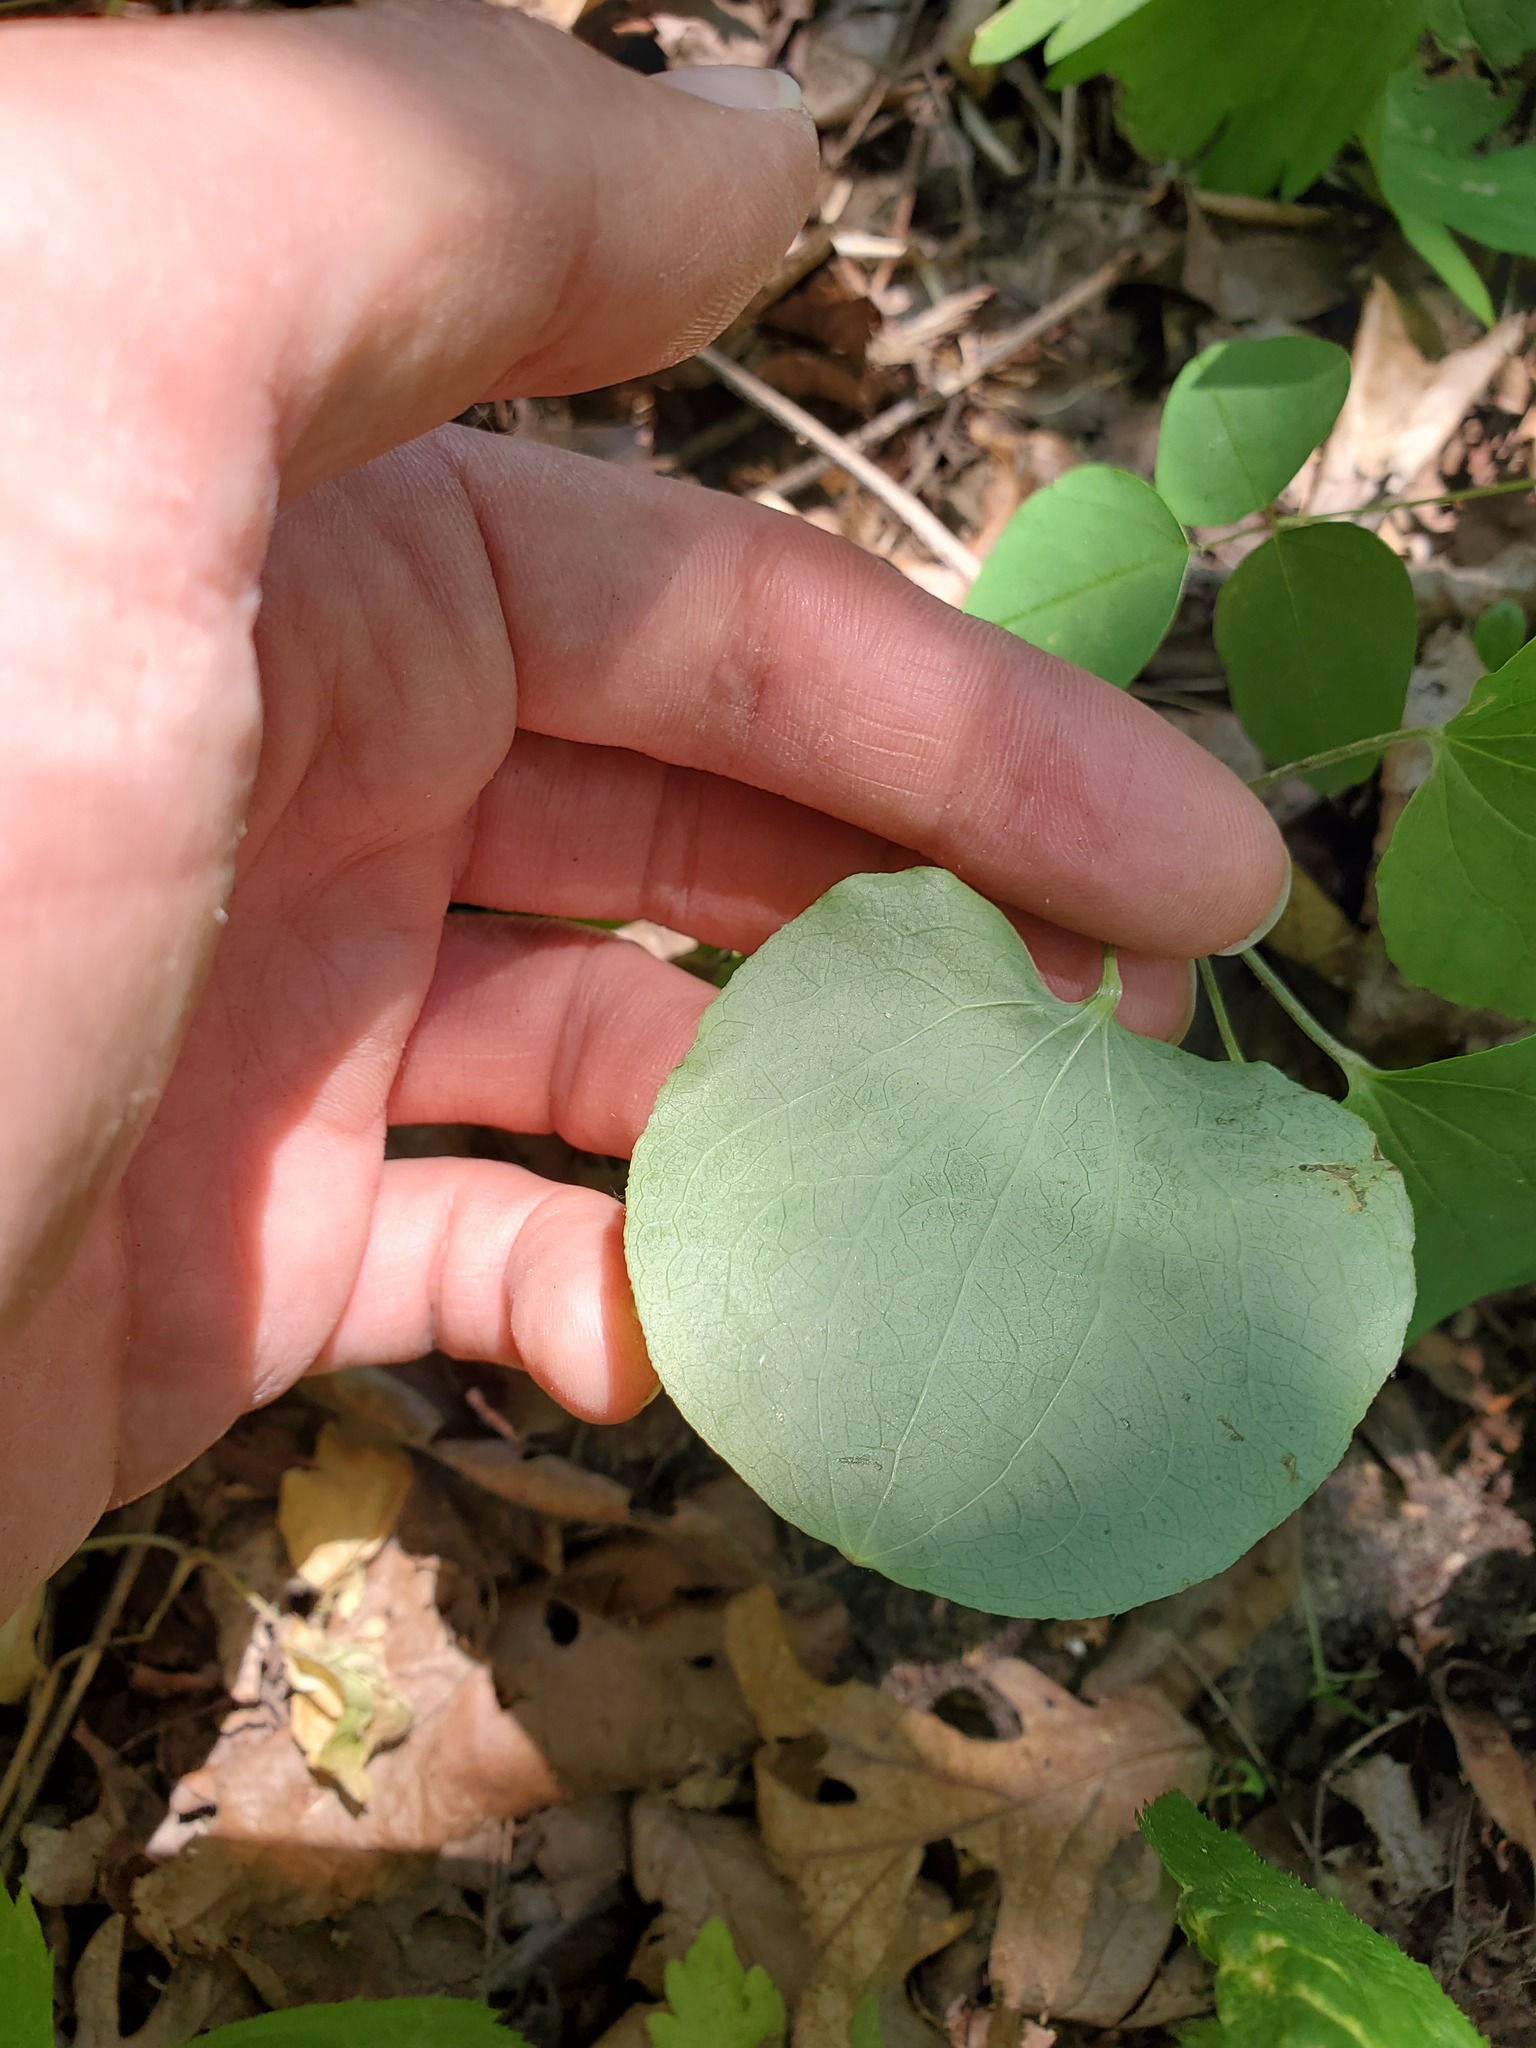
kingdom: Plantae
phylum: Tracheophyta
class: Liliopsida
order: Liliales
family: Smilacaceae
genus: Smilax
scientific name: Smilax lasioneura
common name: Blue ridge carrionflower
